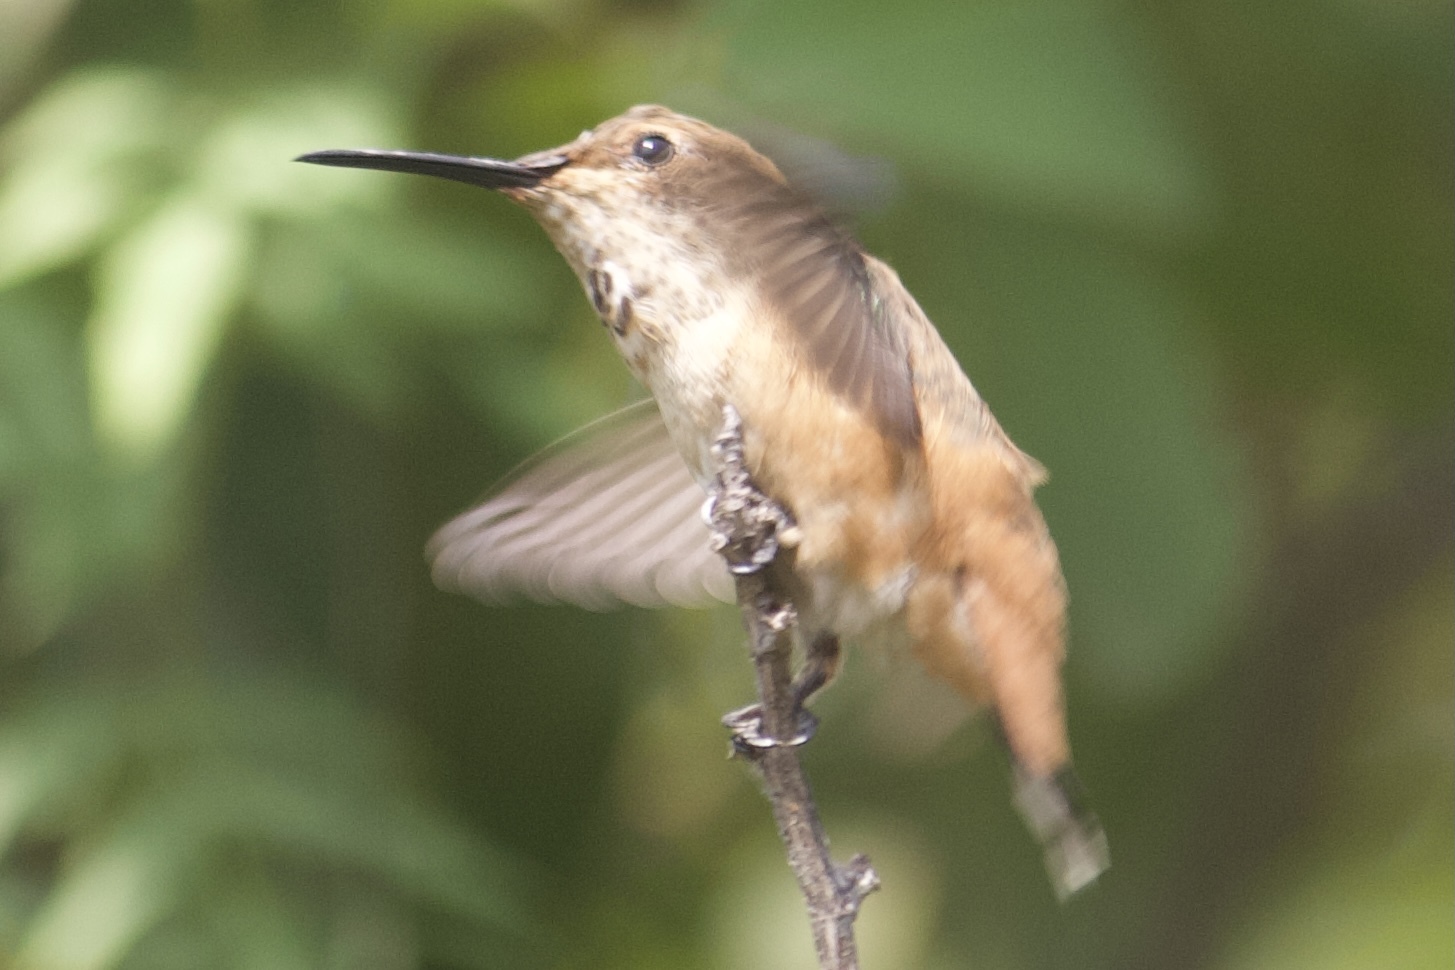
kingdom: Animalia
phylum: Chordata
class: Aves
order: Apodiformes
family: Trochilidae
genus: Selasphorus
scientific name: Selasphorus sasin
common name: Allen's hummingbird
